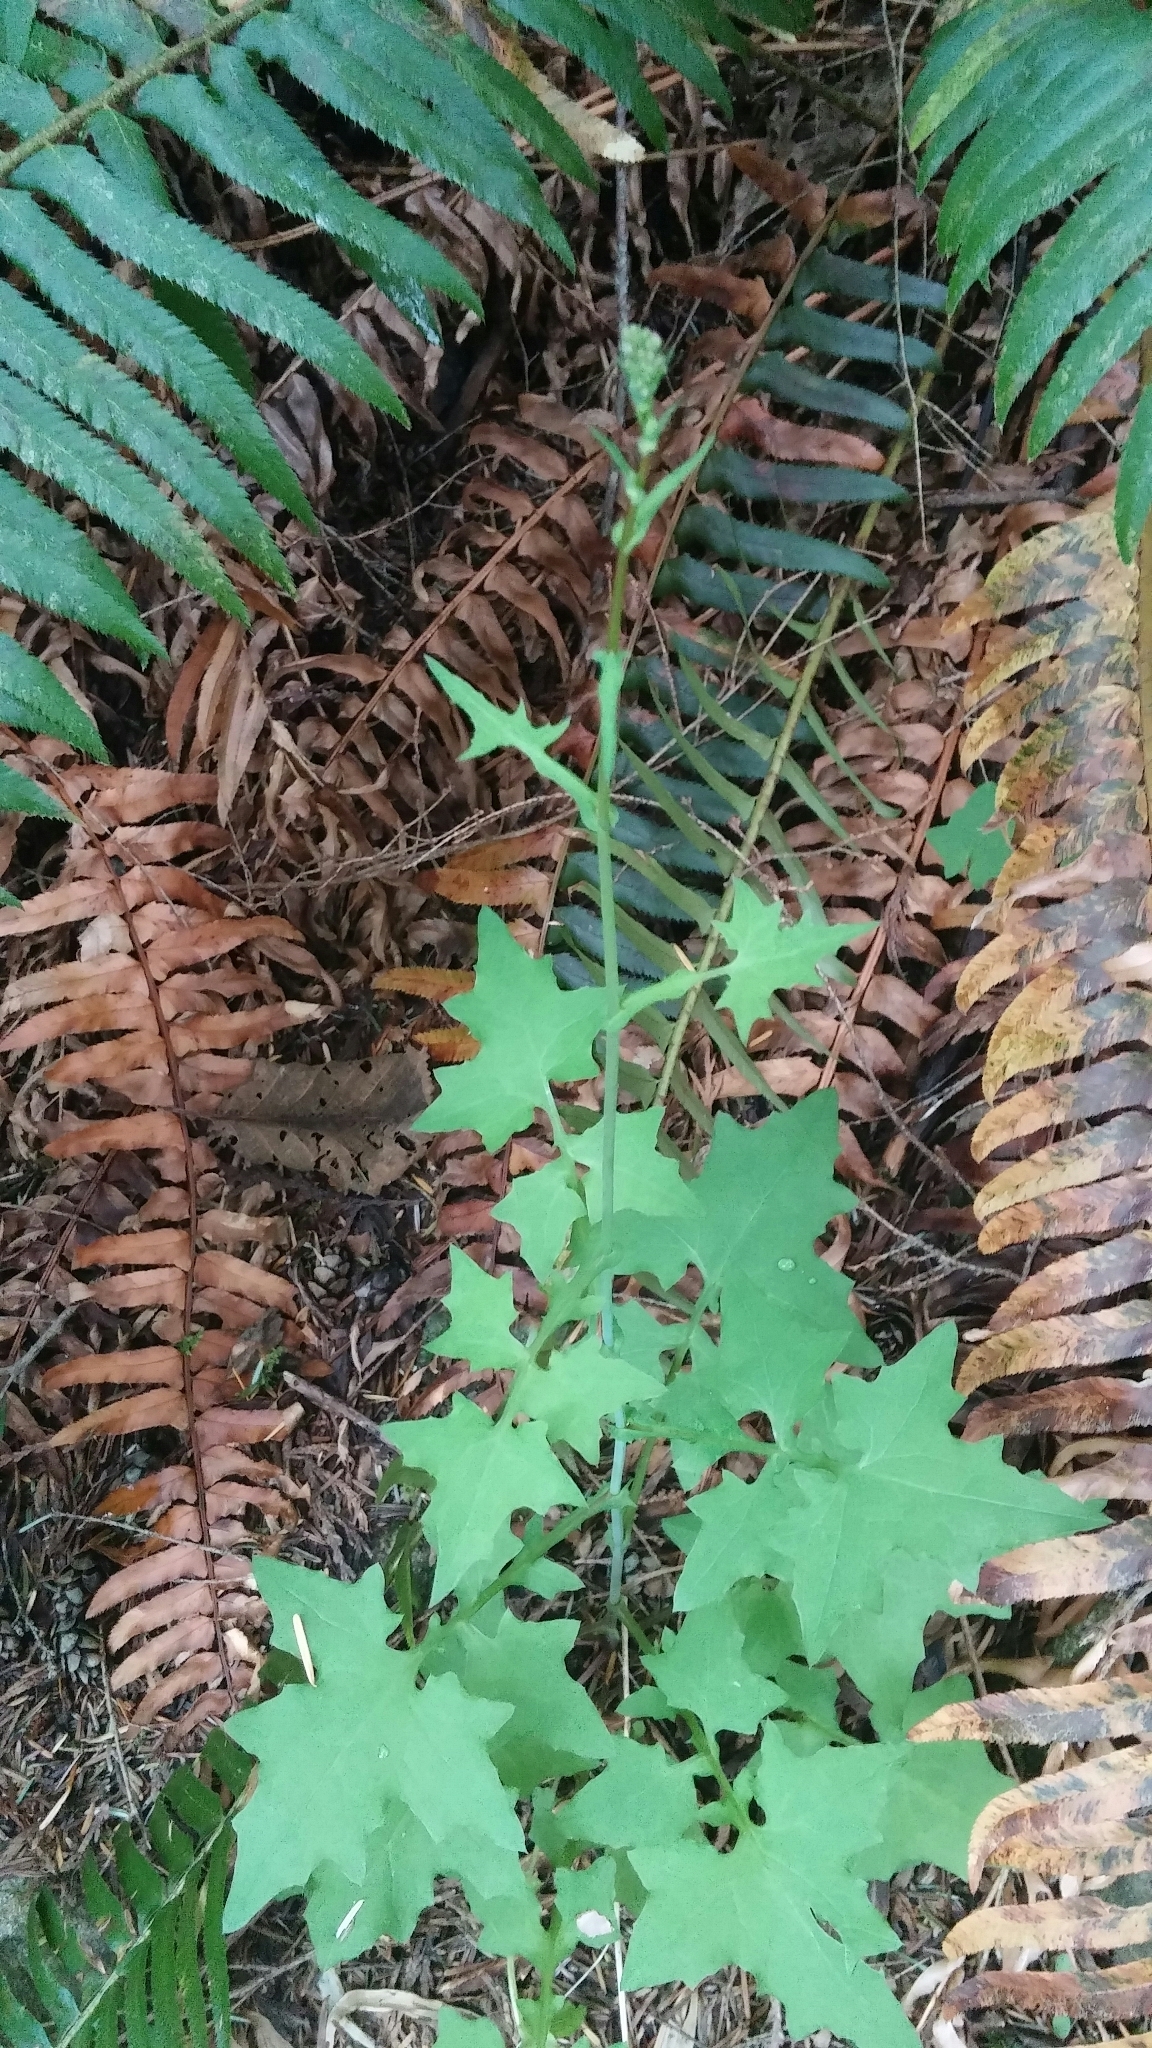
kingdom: Plantae
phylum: Tracheophyta
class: Magnoliopsida
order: Asterales
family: Asteraceae
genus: Mycelis
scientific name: Mycelis muralis
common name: Wall lettuce
